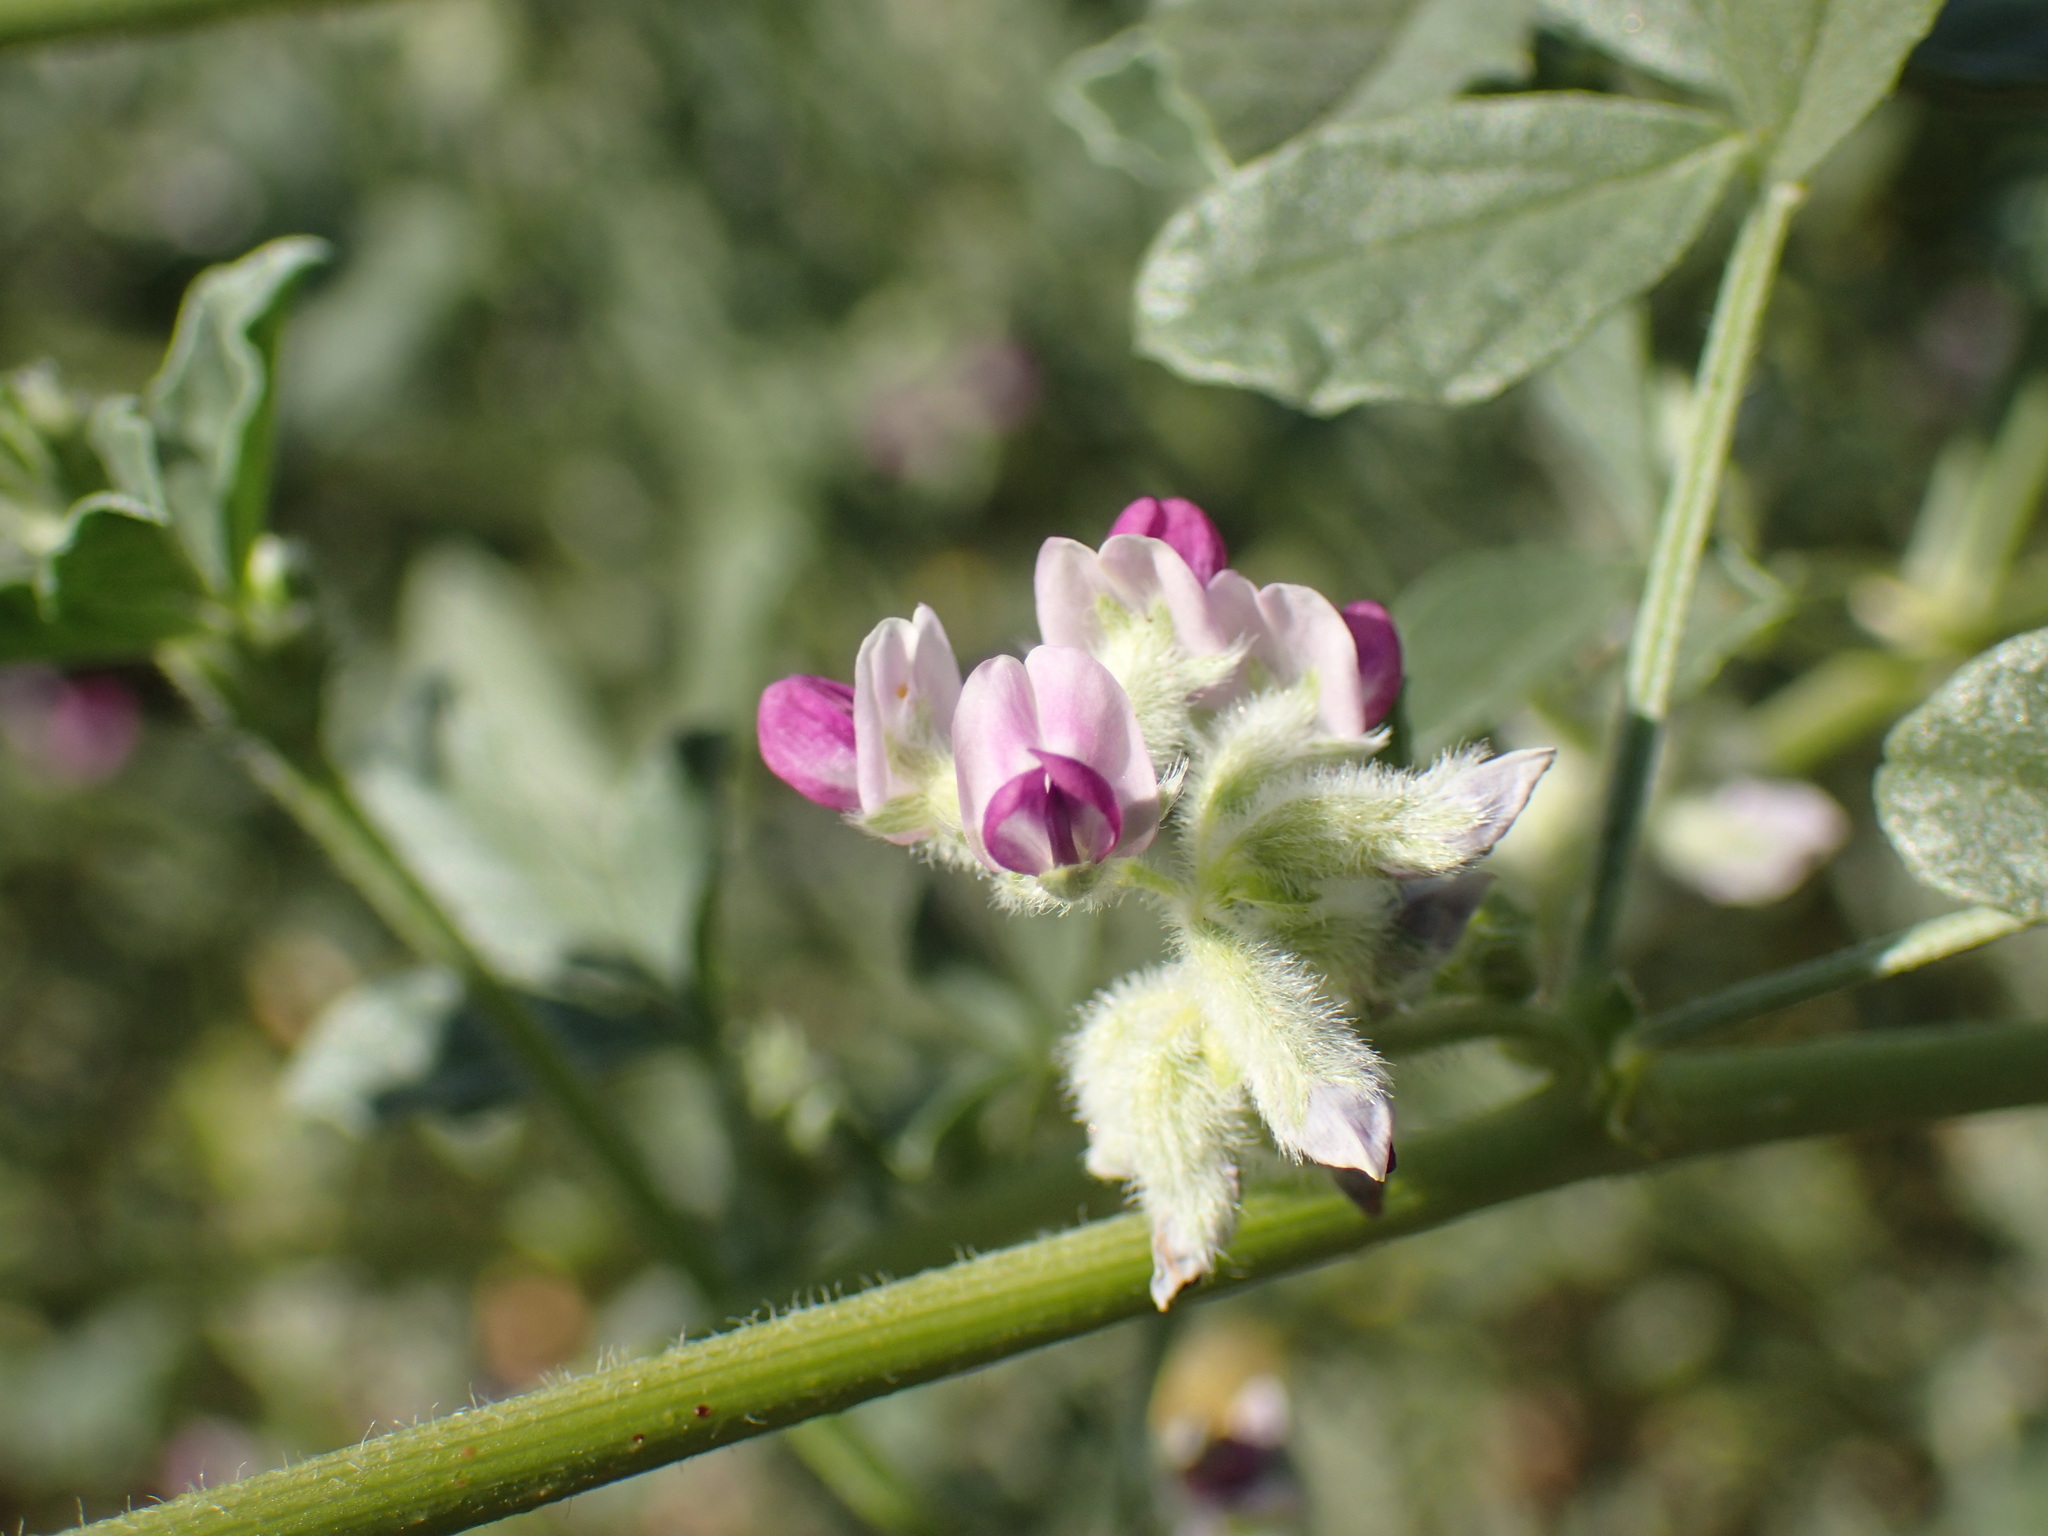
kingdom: Plantae
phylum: Tracheophyta
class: Magnoliopsida
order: Fabales
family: Fabaceae
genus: Cullen
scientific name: Cullen tomentosum
